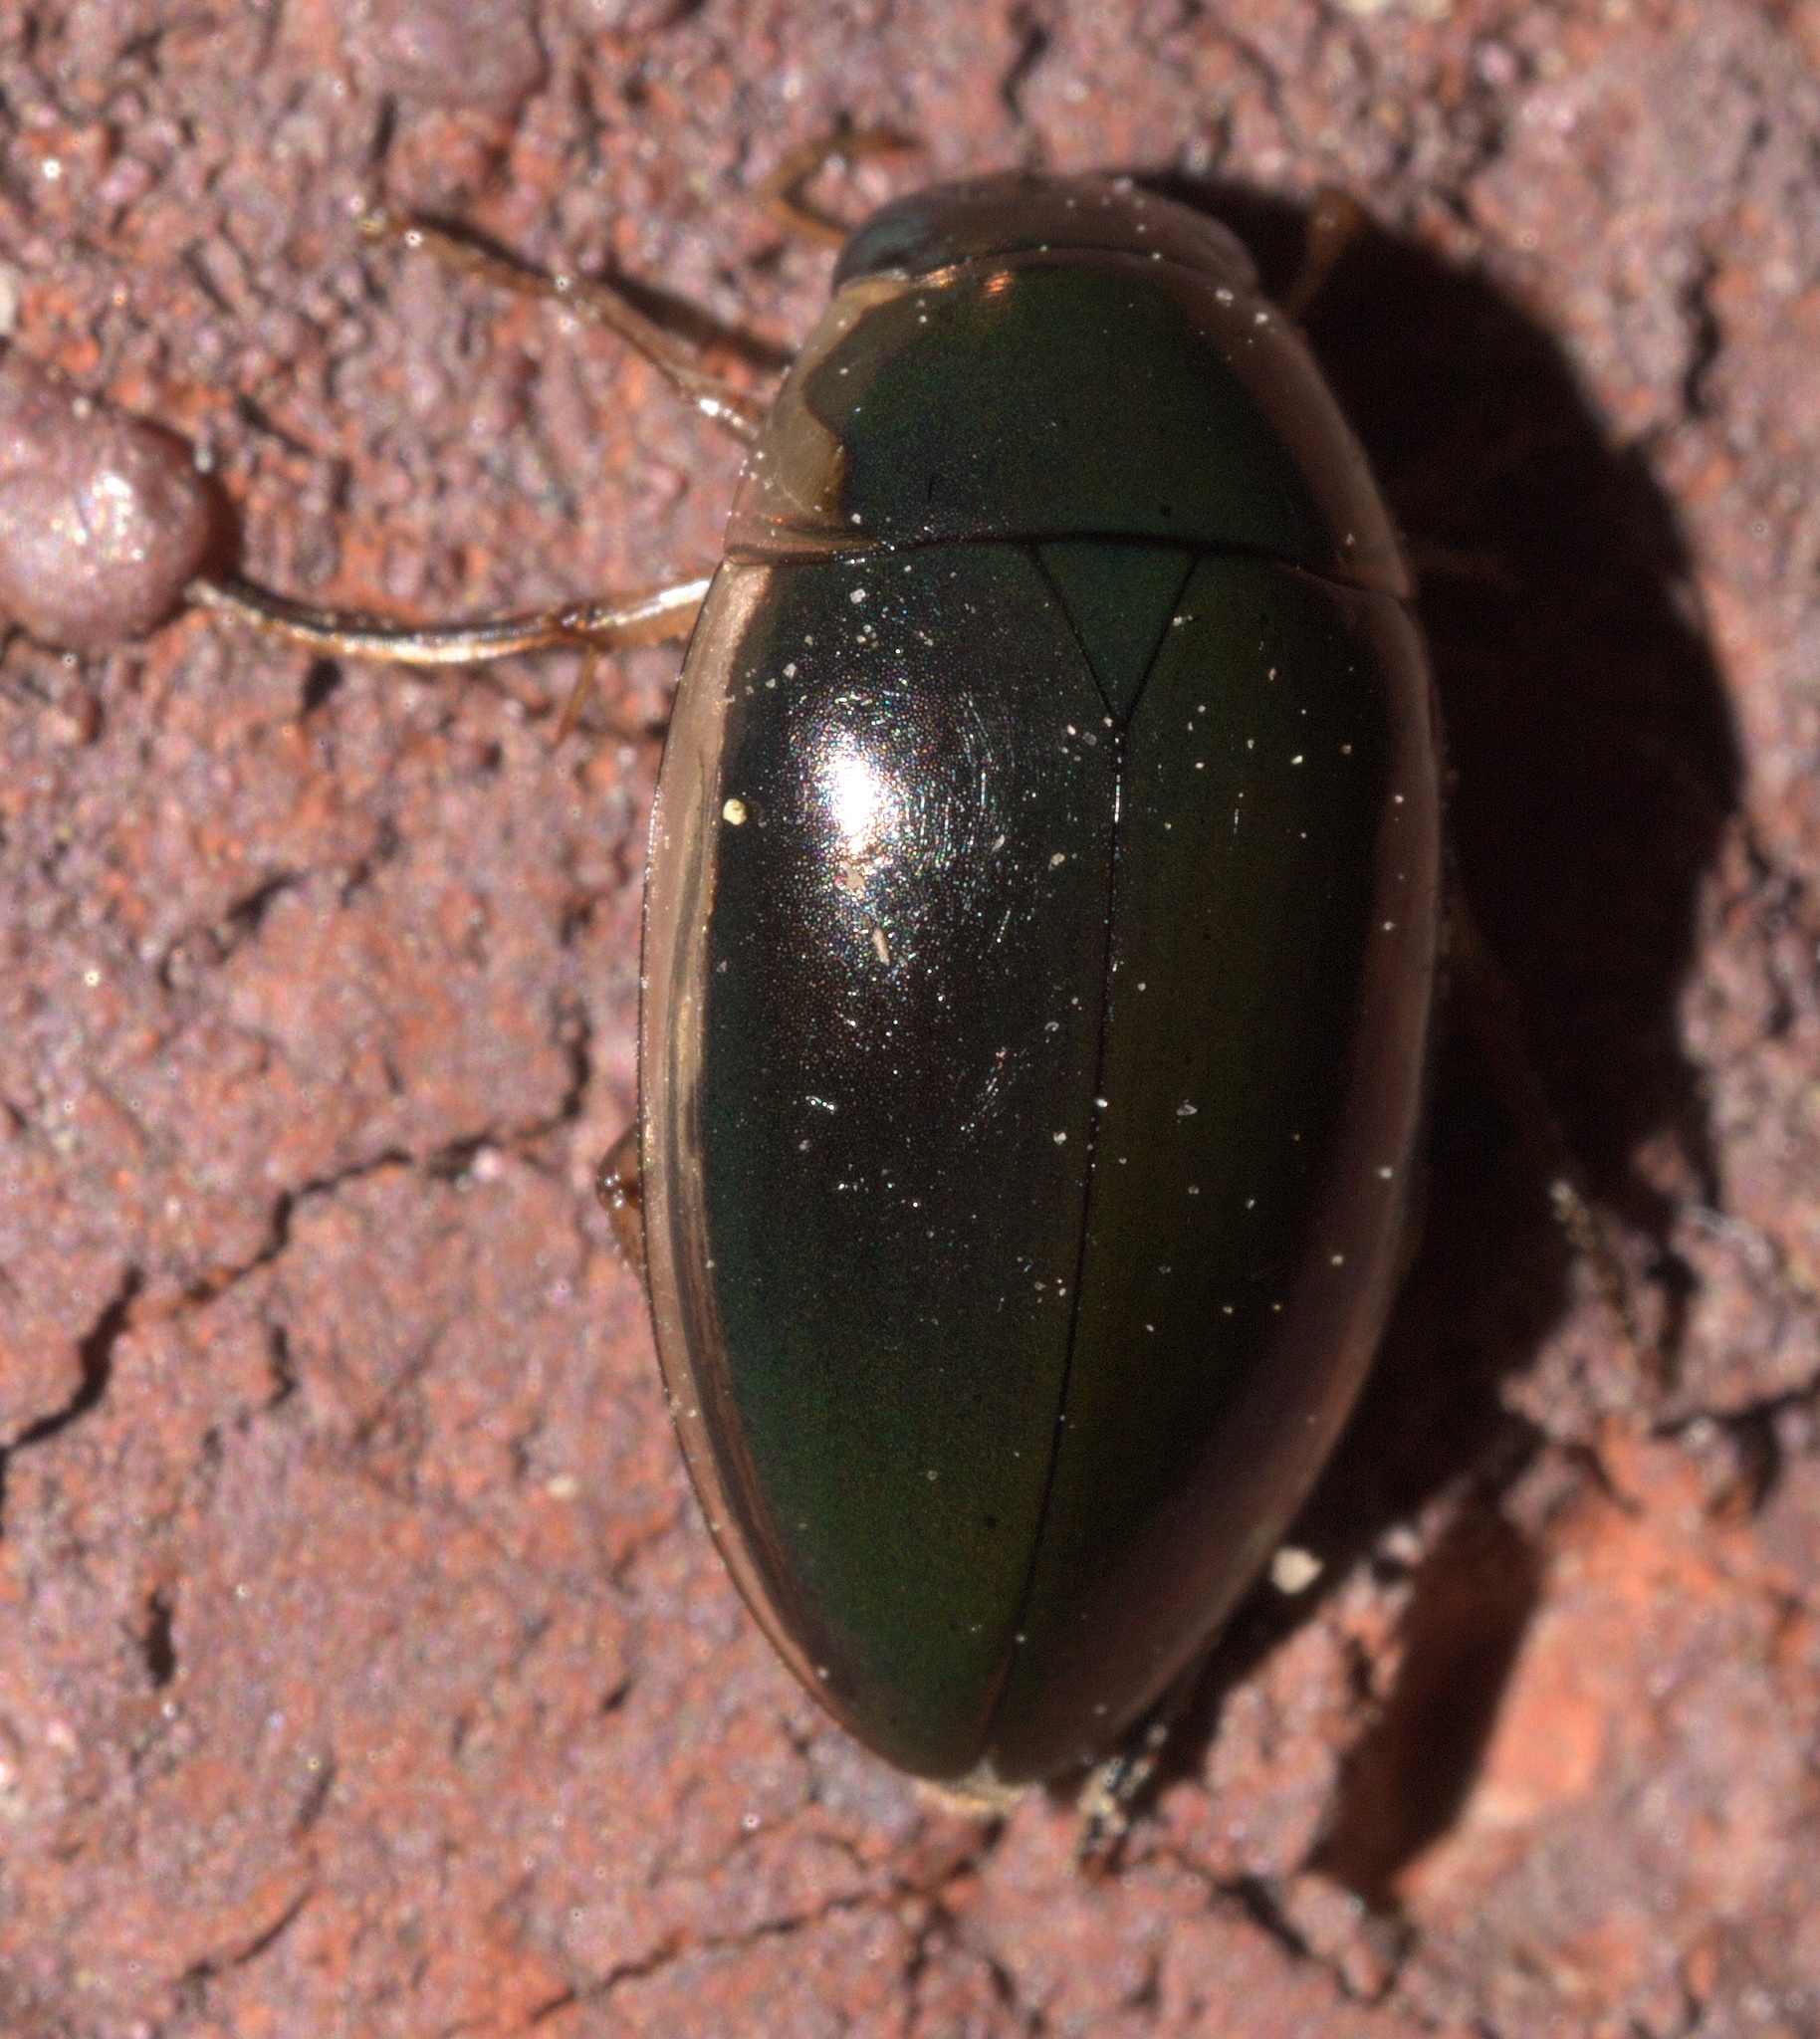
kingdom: Animalia
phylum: Arthropoda
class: Insecta
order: Coleoptera
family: Hydrophilidae
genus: Tropisternus
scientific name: Tropisternus lateralis
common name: Lateral-banded water scavenger beetle
